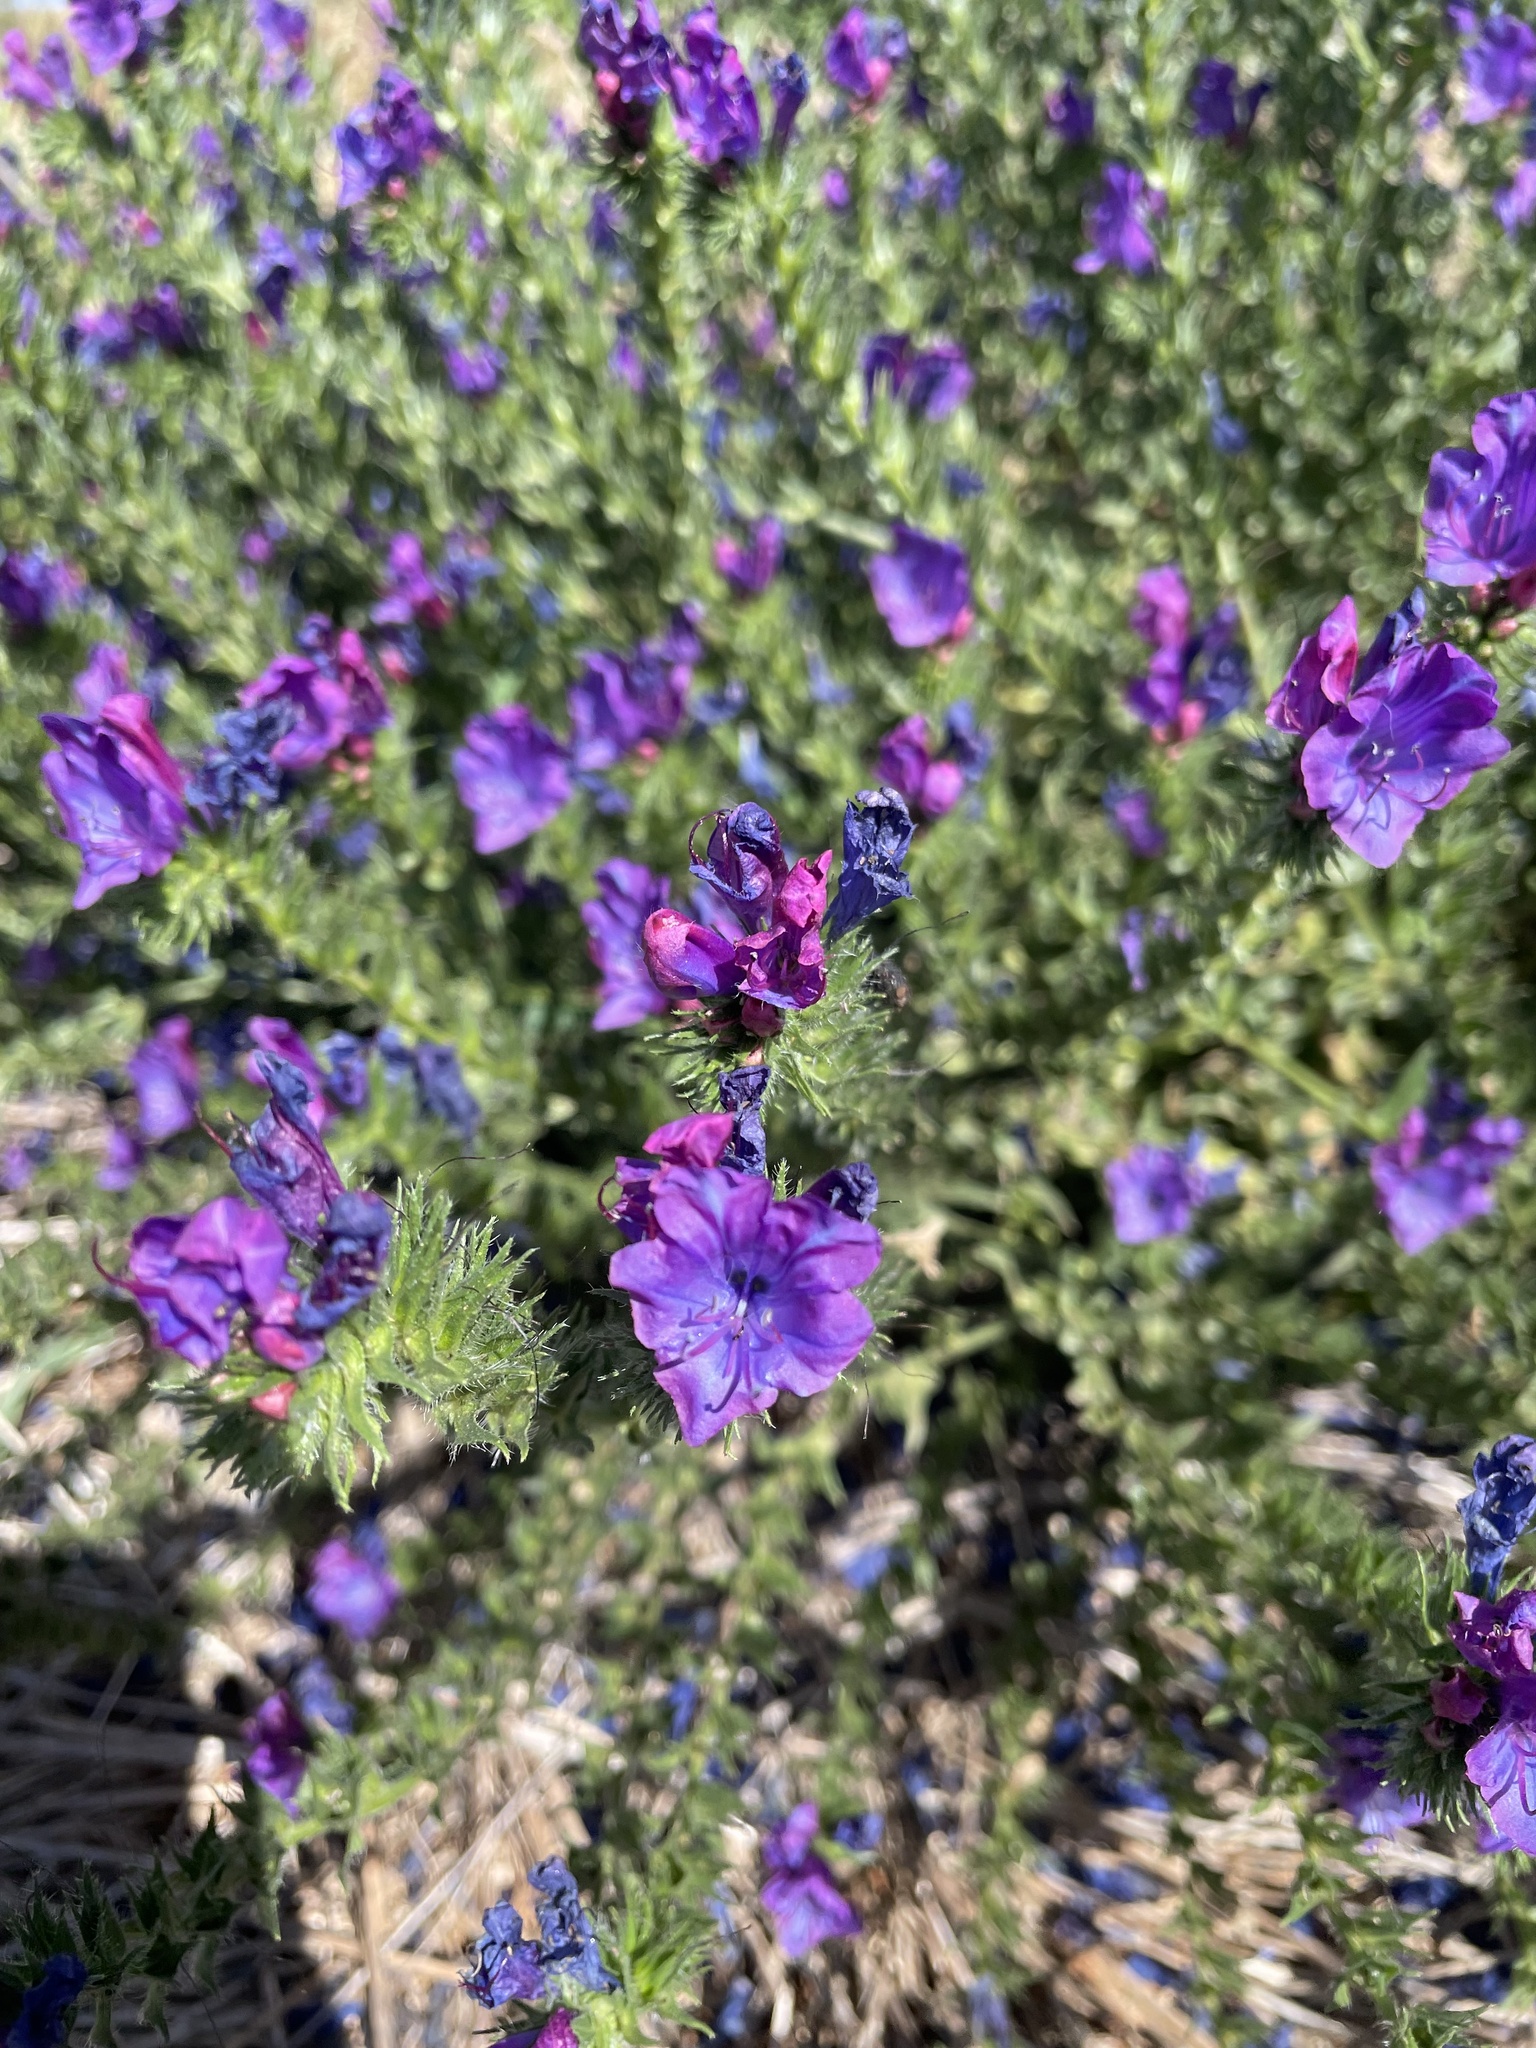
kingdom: Plantae
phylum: Tracheophyta
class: Magnoliopsida
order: Boraginales
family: Boraginaceae
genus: Echium
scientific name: Echium plantagineum
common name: Purple viper's-bugloss
